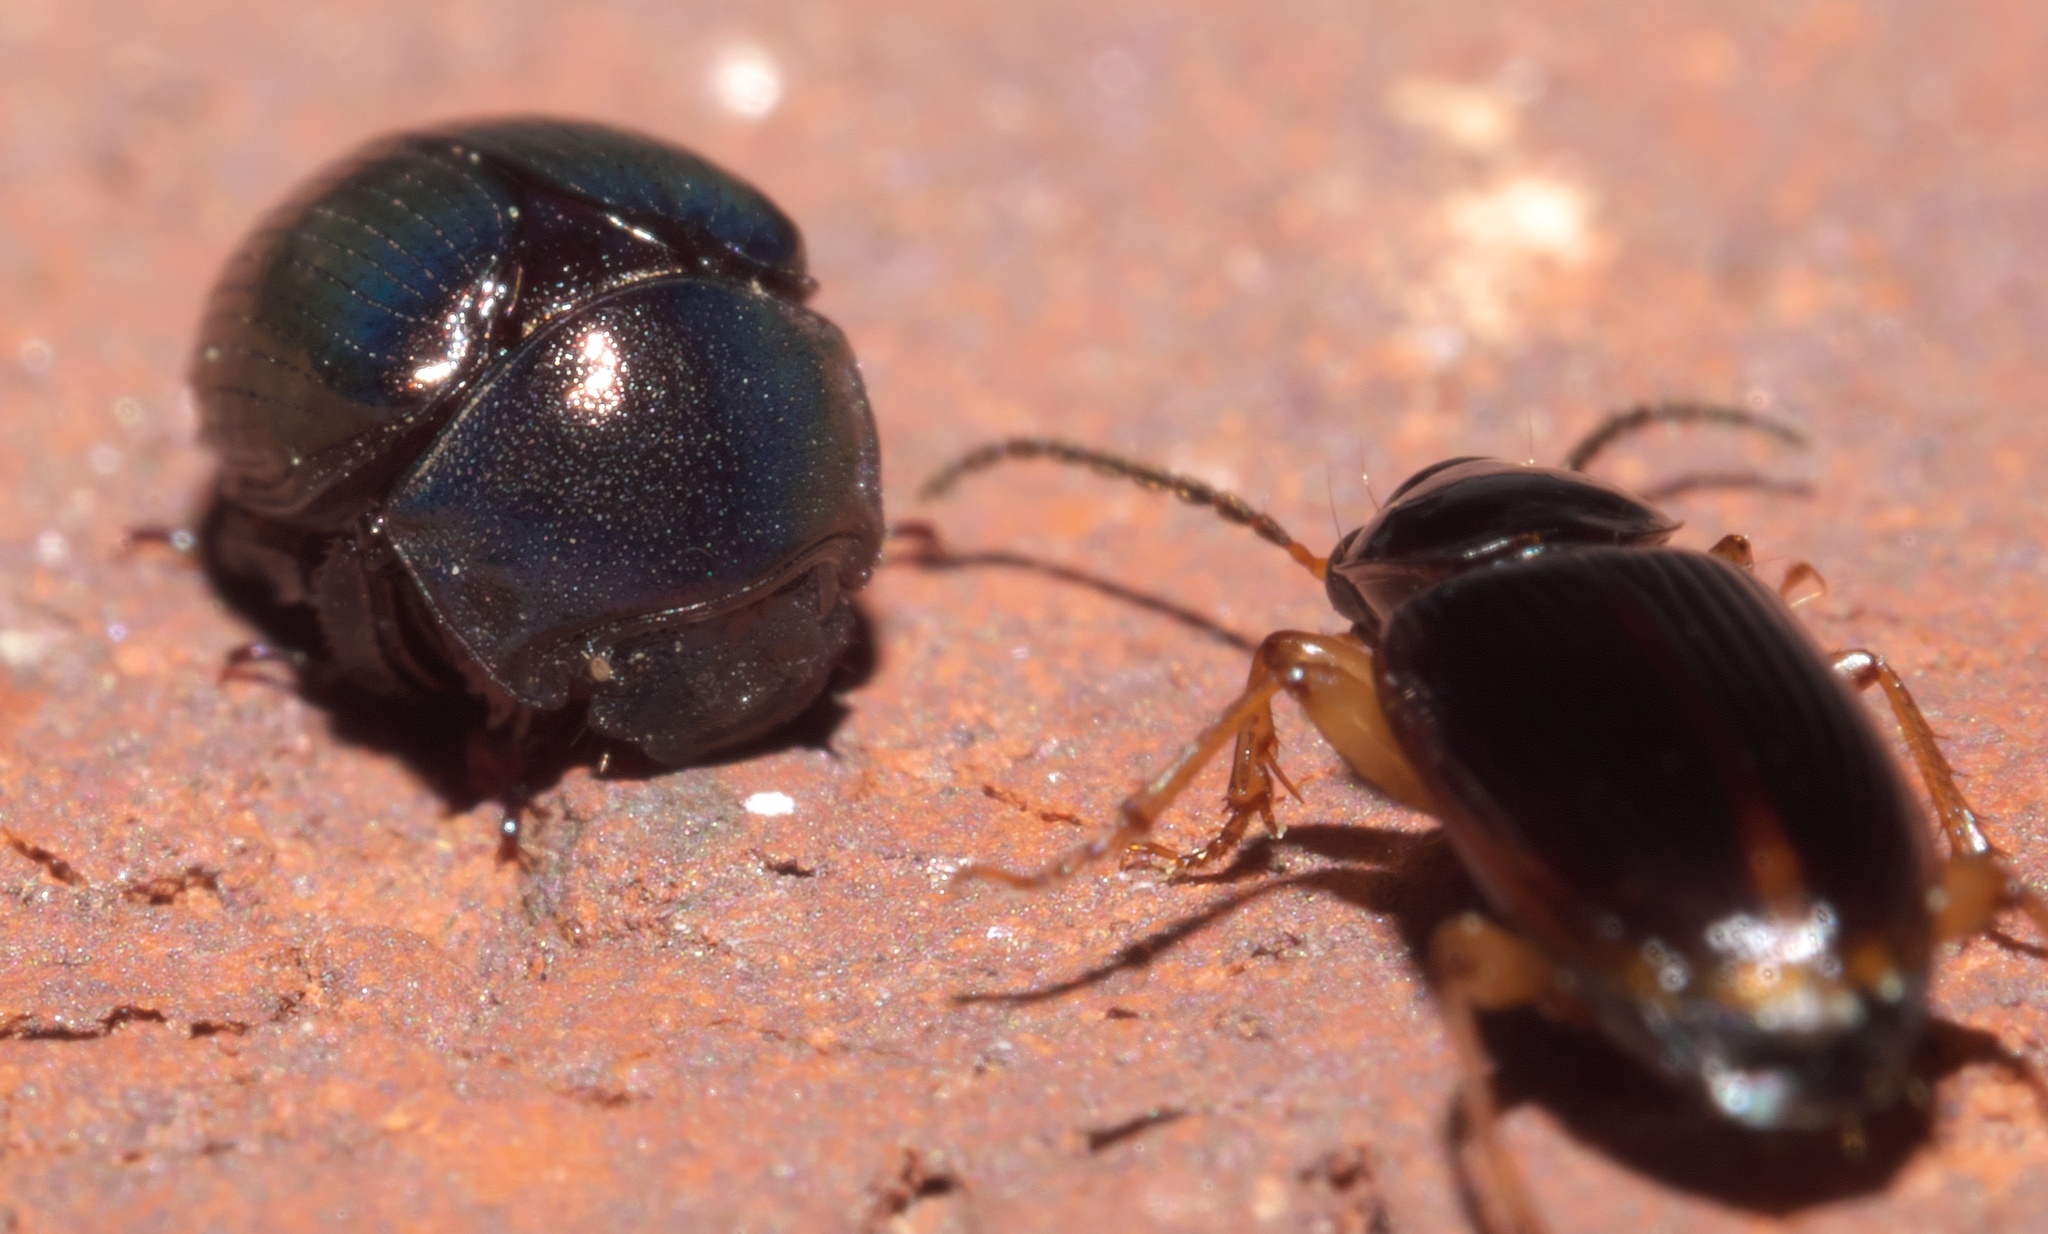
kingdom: Animalia
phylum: Arthropoda
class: Insecta
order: Coleoptera
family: Hybosoridae
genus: Germarostes
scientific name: Germarostes aphodioides
